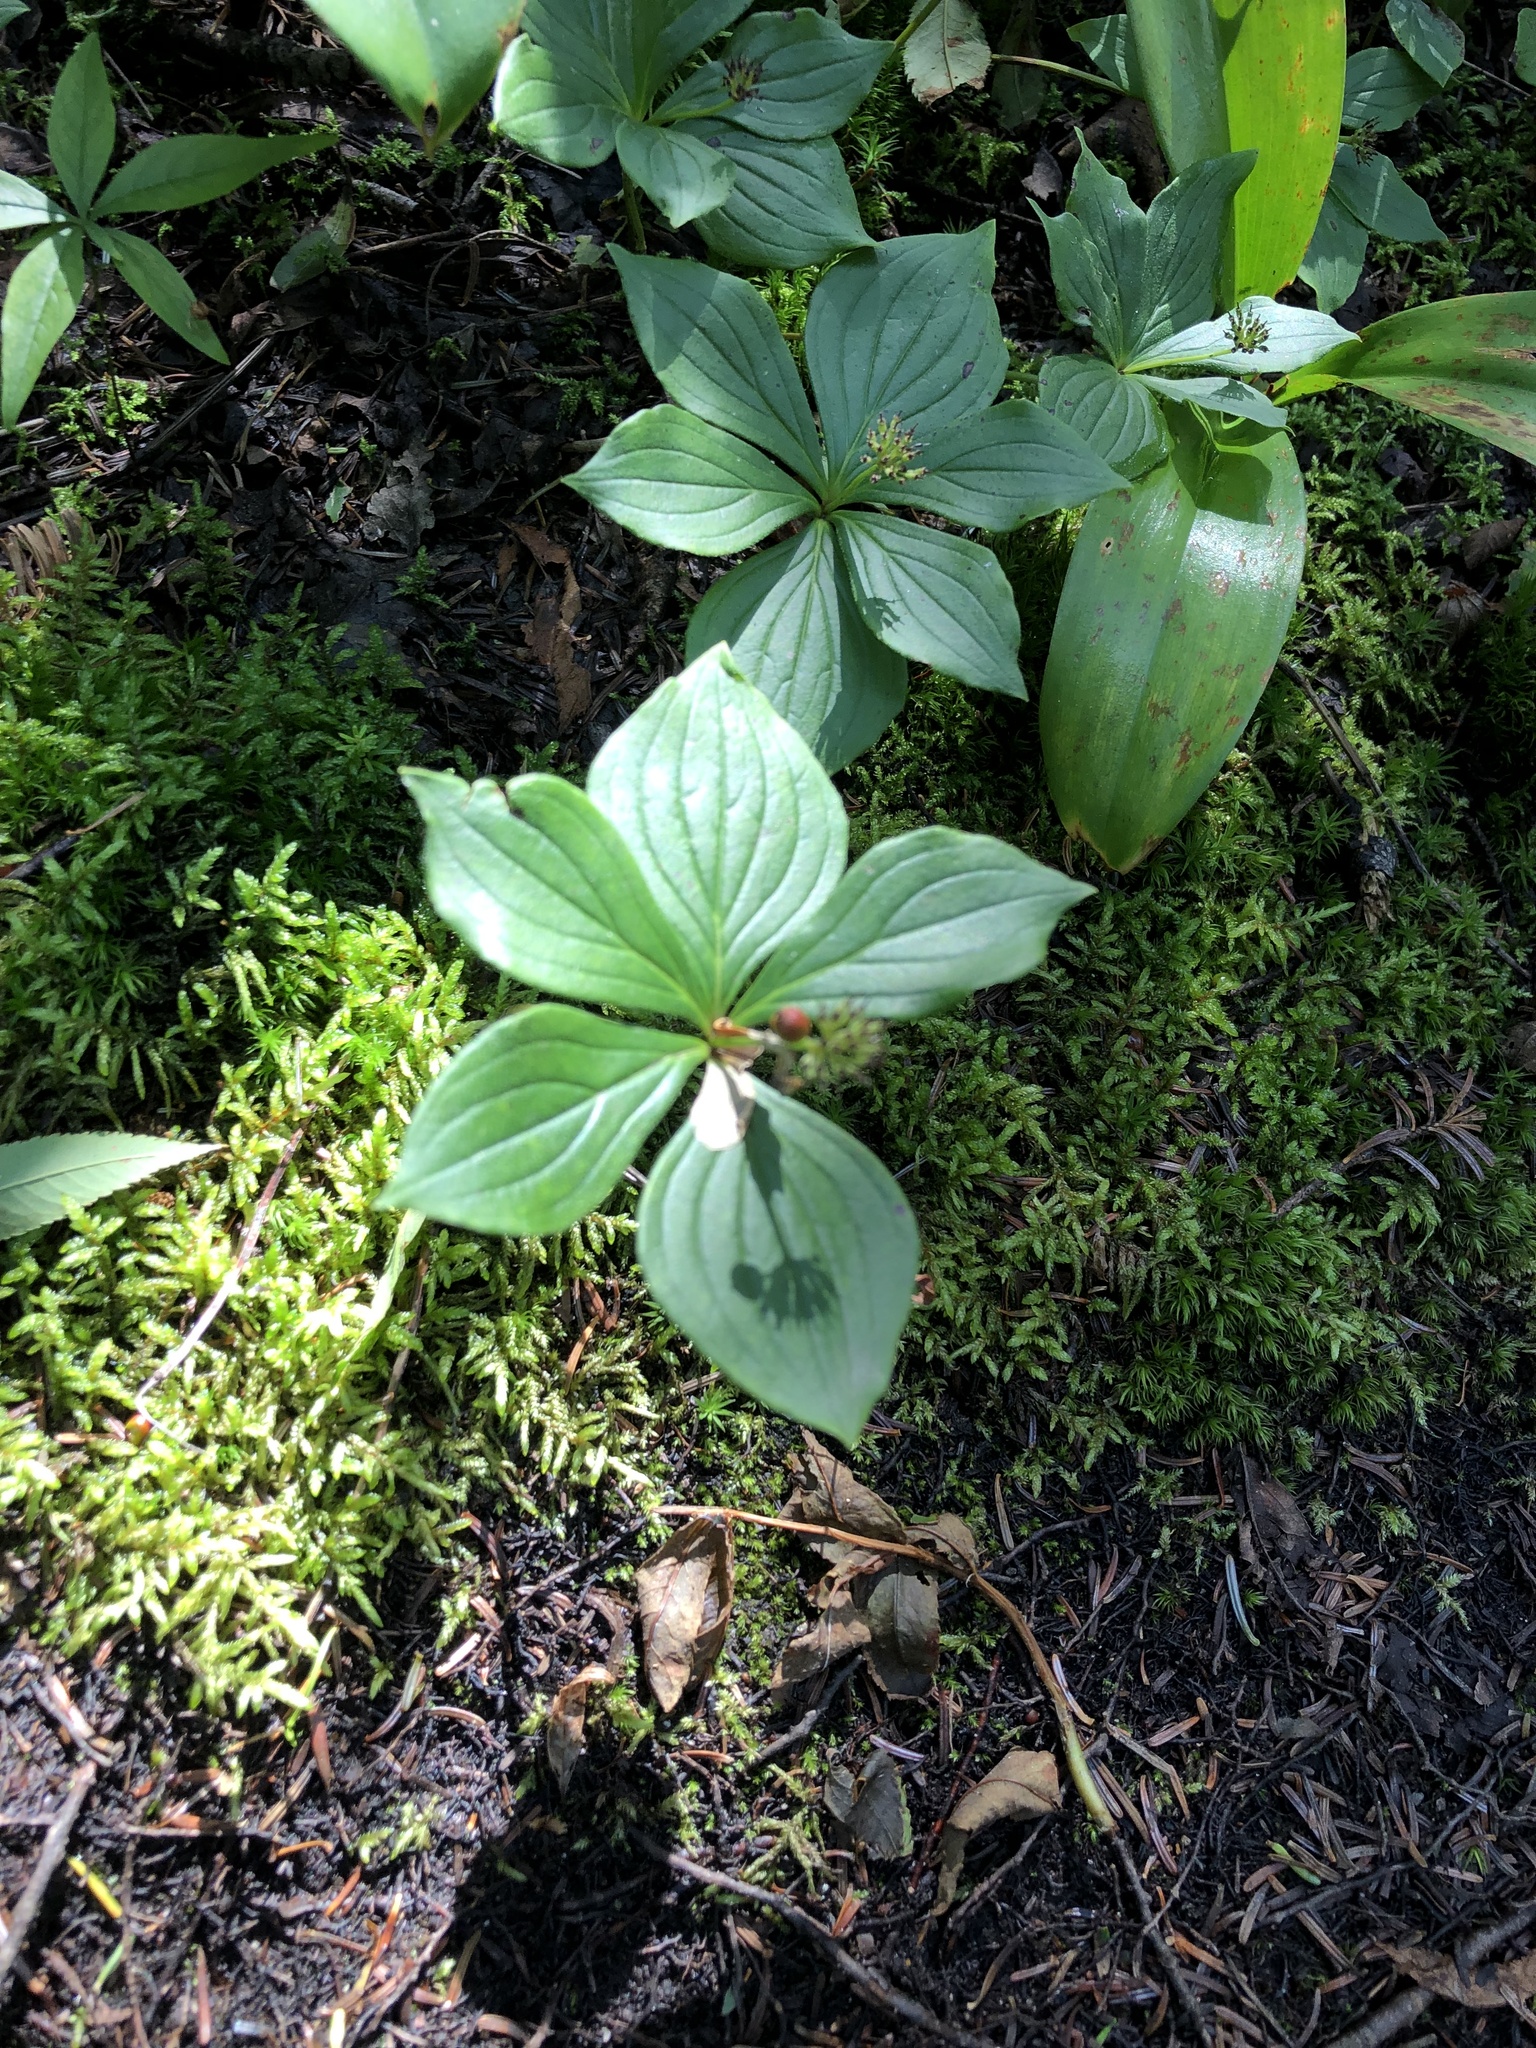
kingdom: Plantae
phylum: Tracheophyta
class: Magnoliopsida
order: Cornales
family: Cornaceae
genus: Cornus
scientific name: Cornus canadensis
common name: Creeping dogwood
